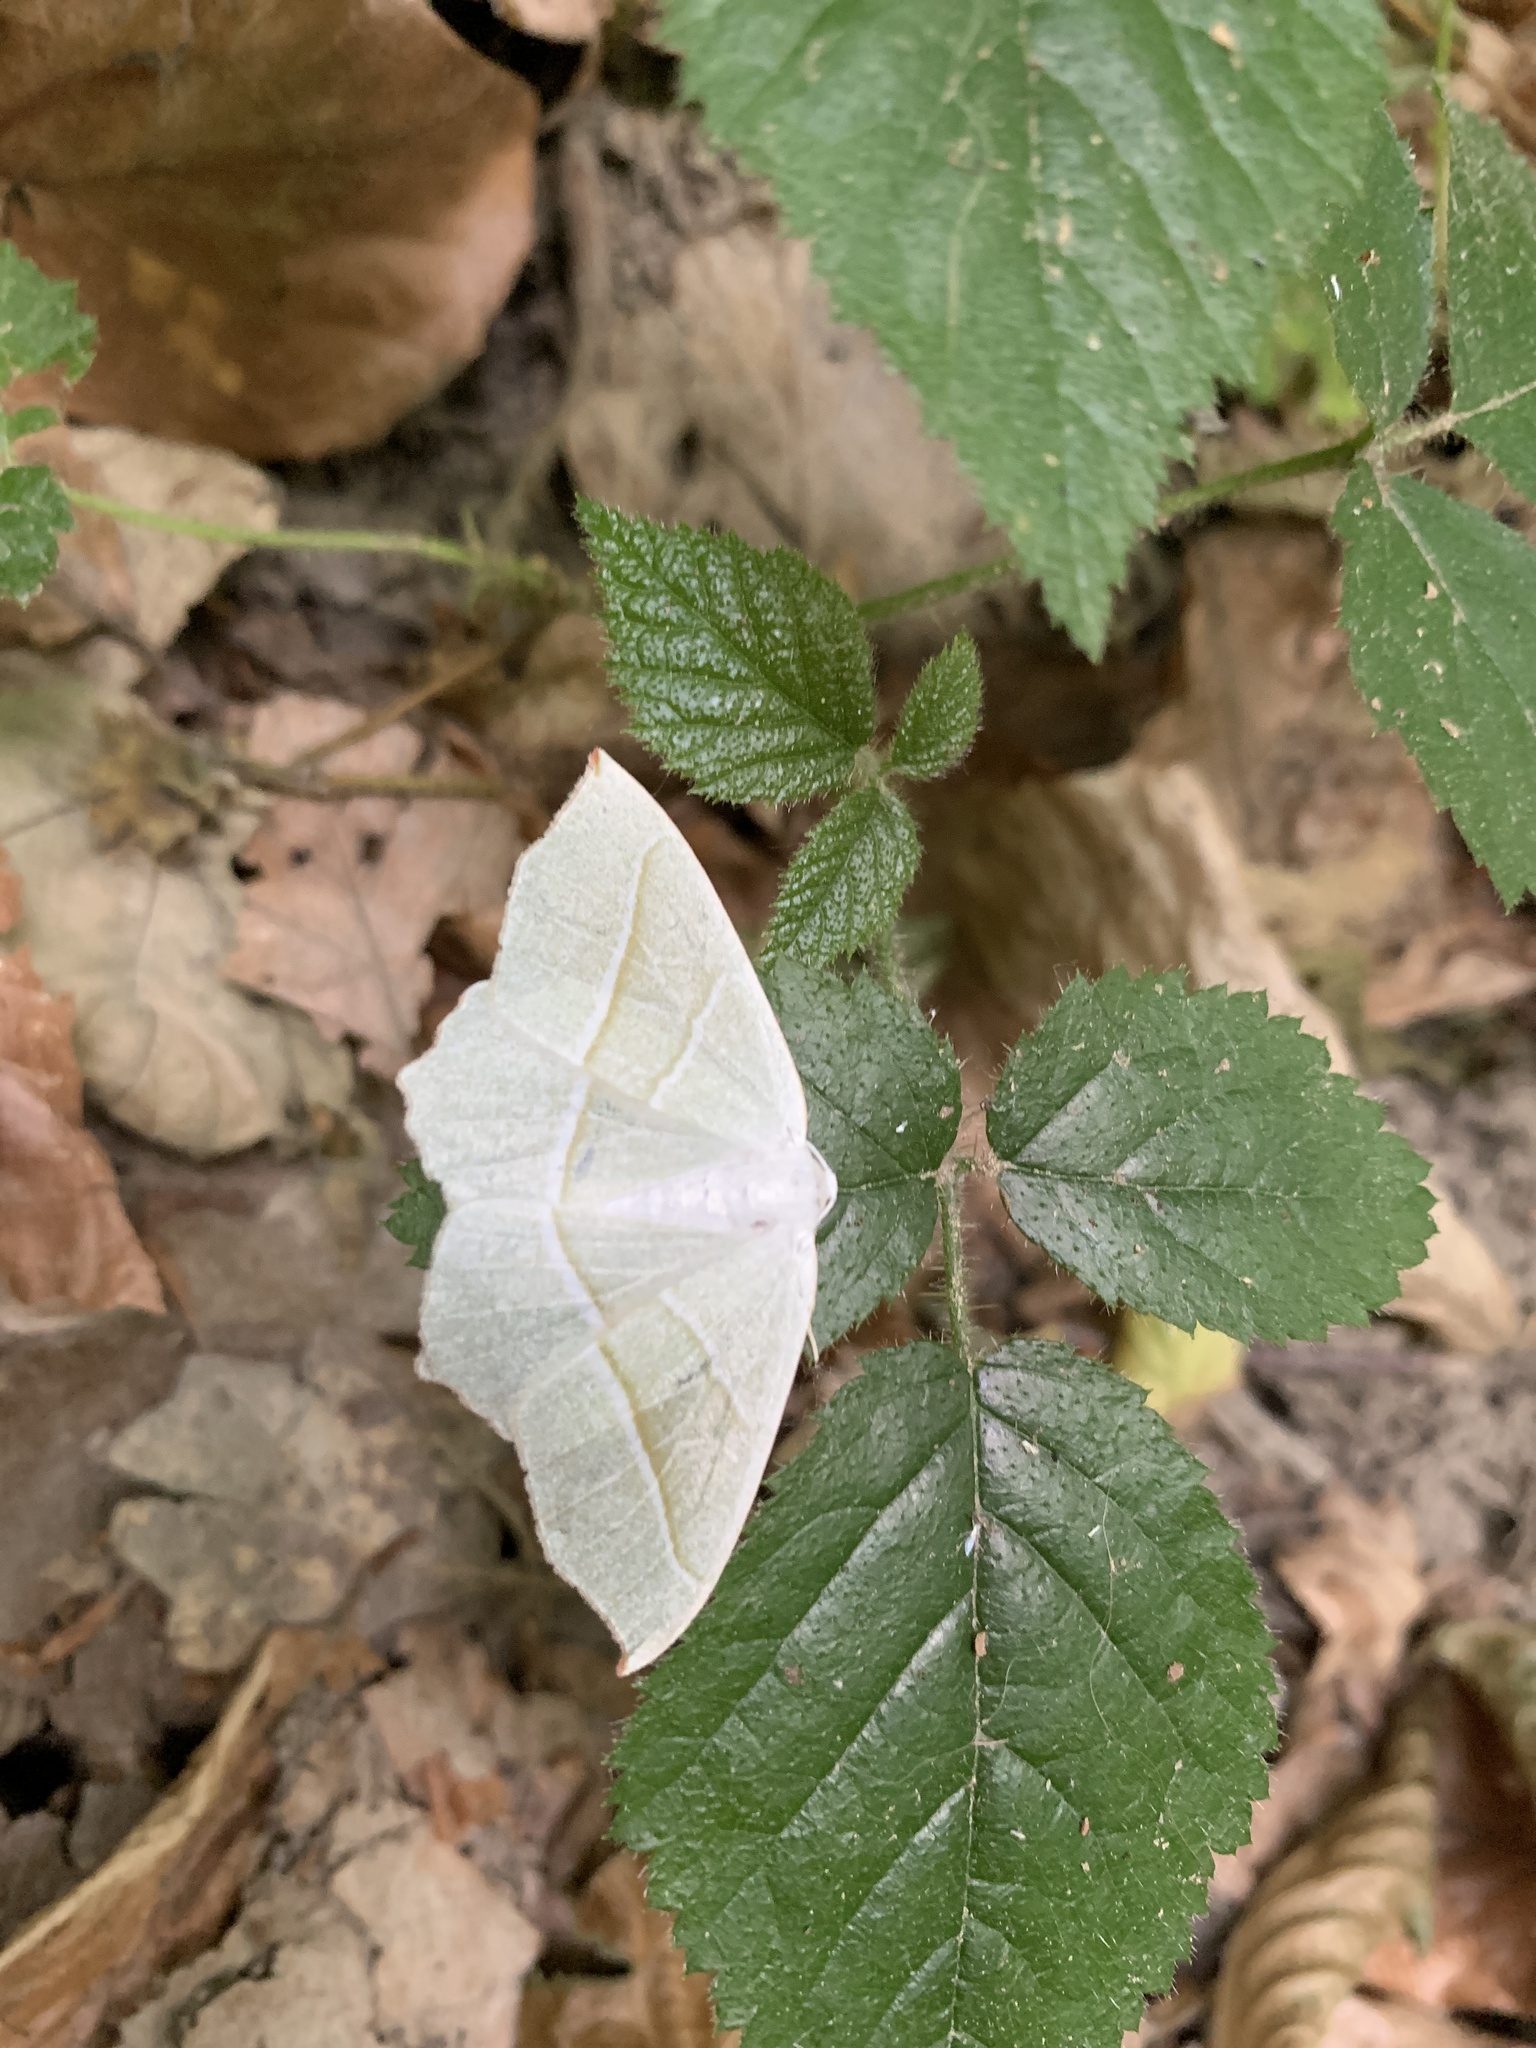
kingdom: Animalia
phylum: Arthropoda
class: Insecta
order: Lepidoptera
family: Geometridae
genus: Campaea
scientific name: Campaea margaritaria
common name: Light emerald
